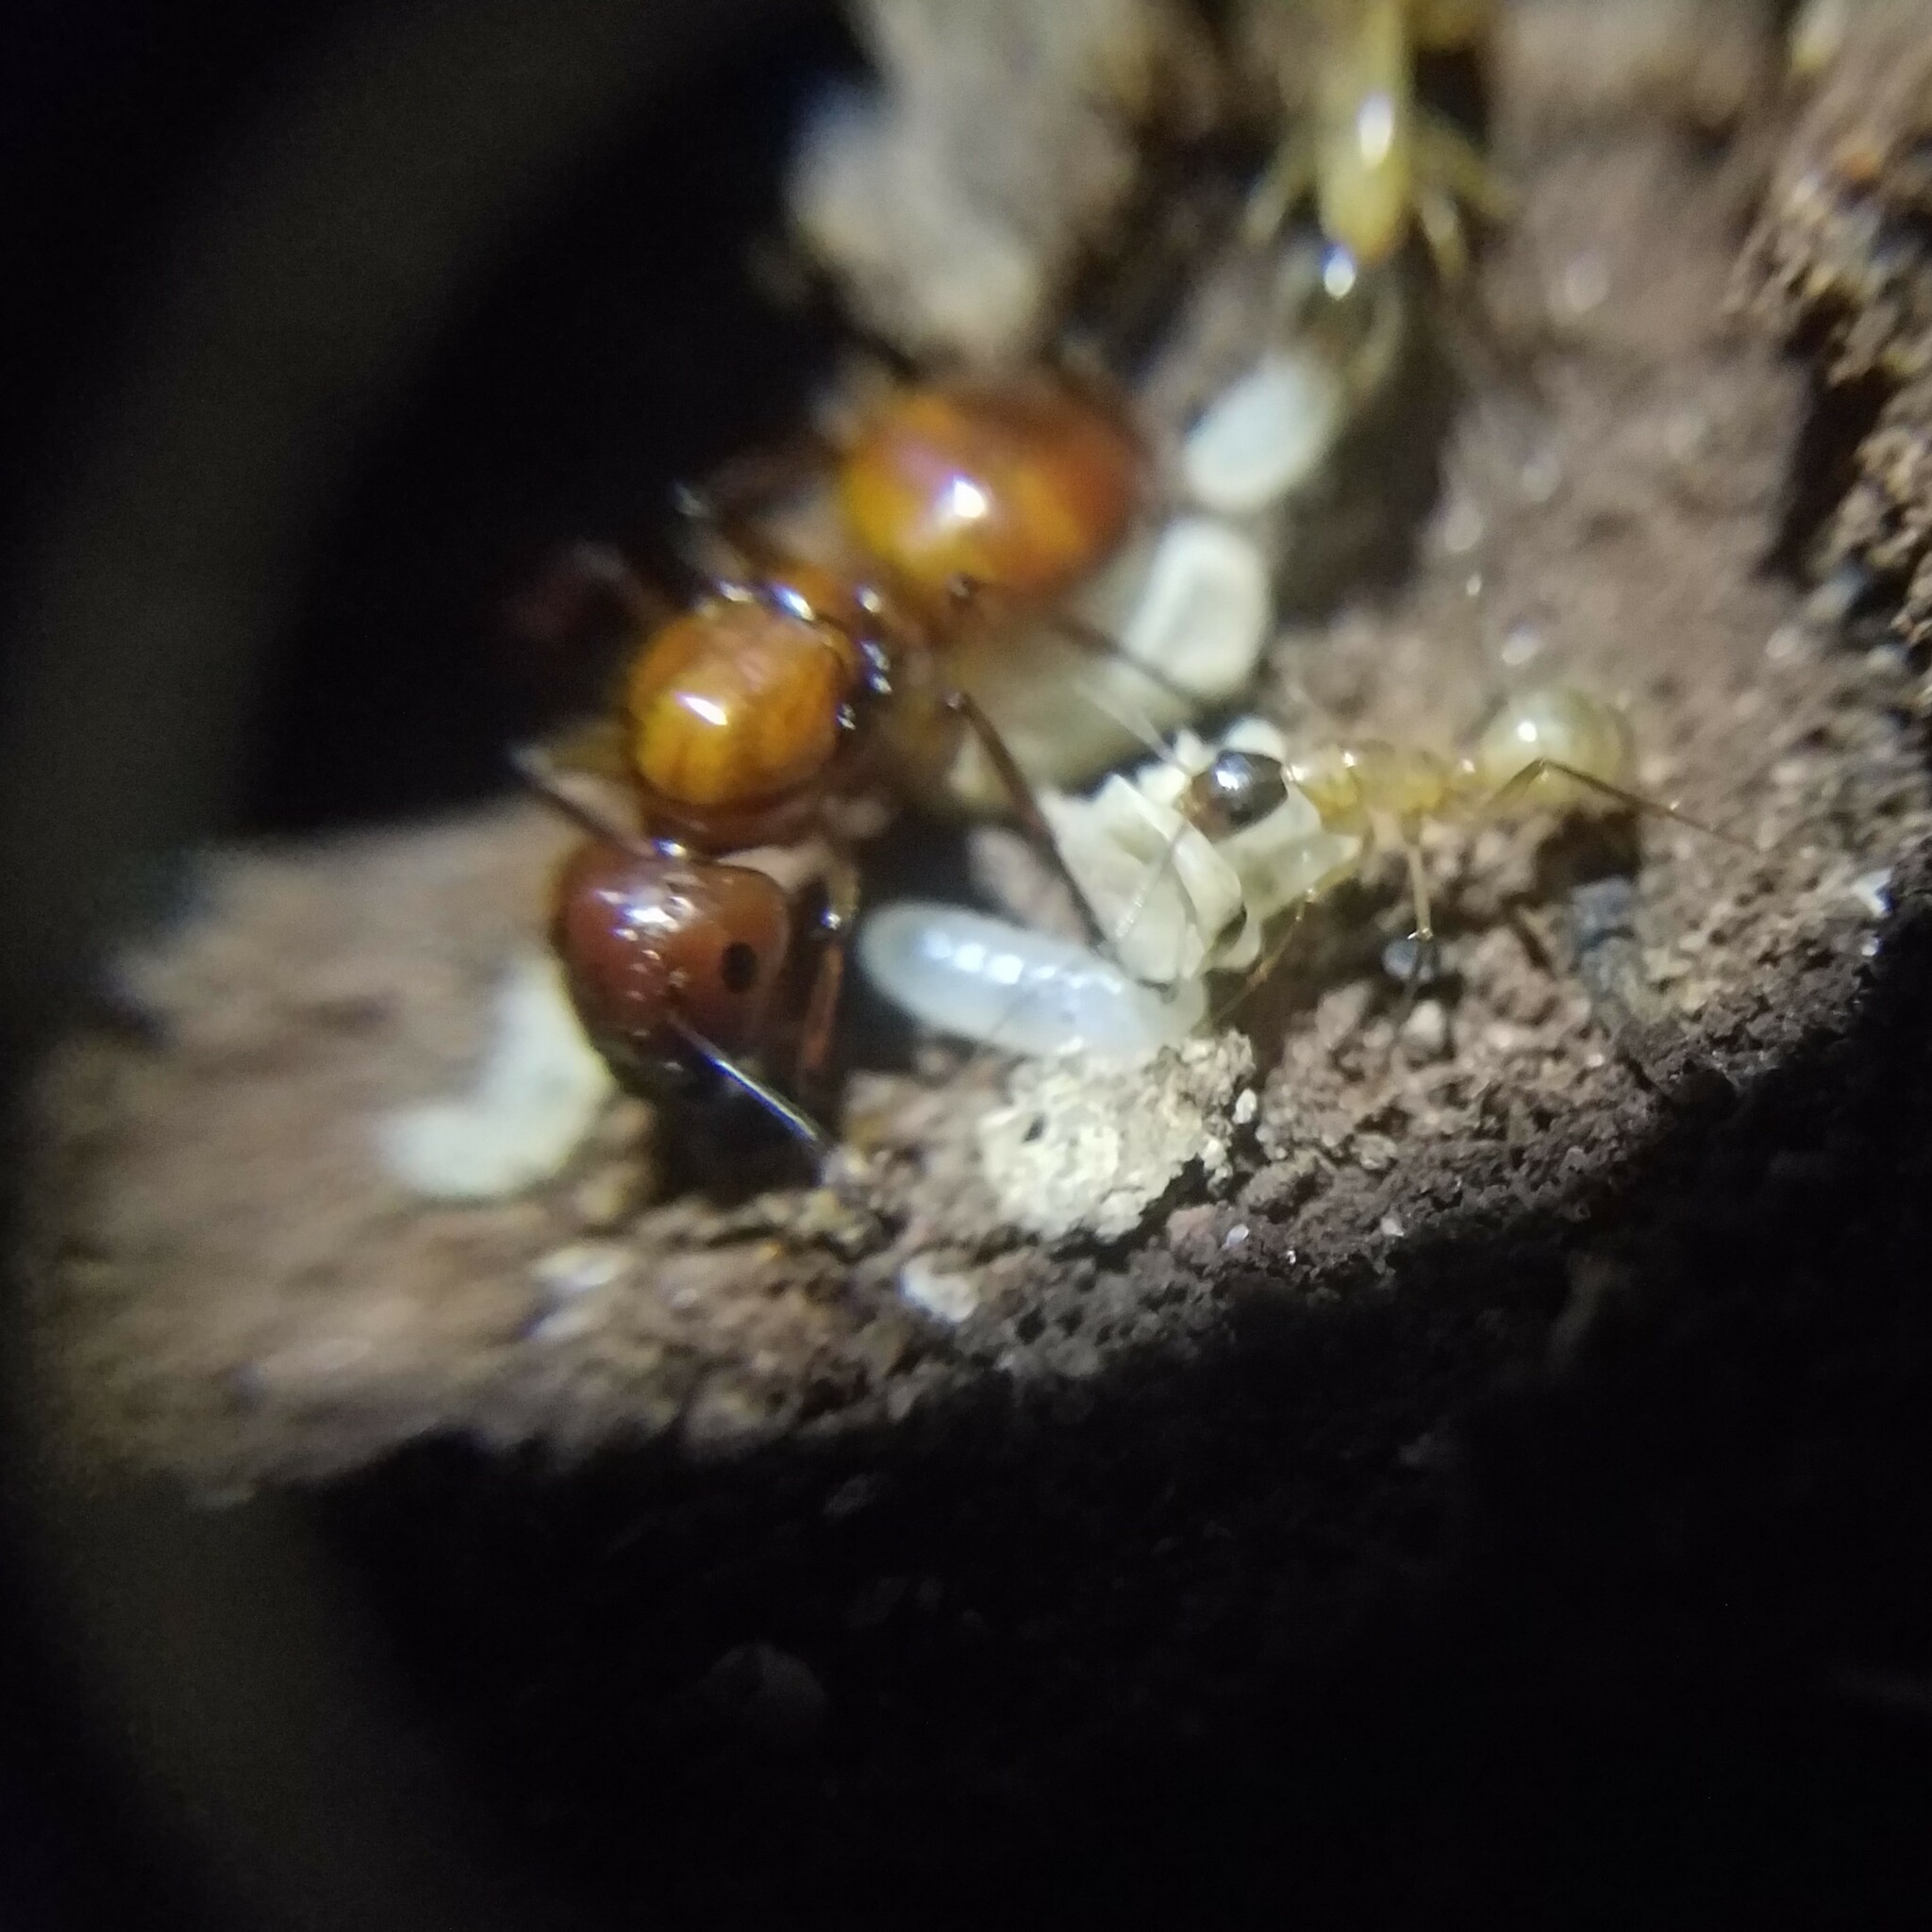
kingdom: Animalia
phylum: Arthropoda
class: Insecta
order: Hymenoptera
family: Formicidae
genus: Camponotus
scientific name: Camponotus castaneus
